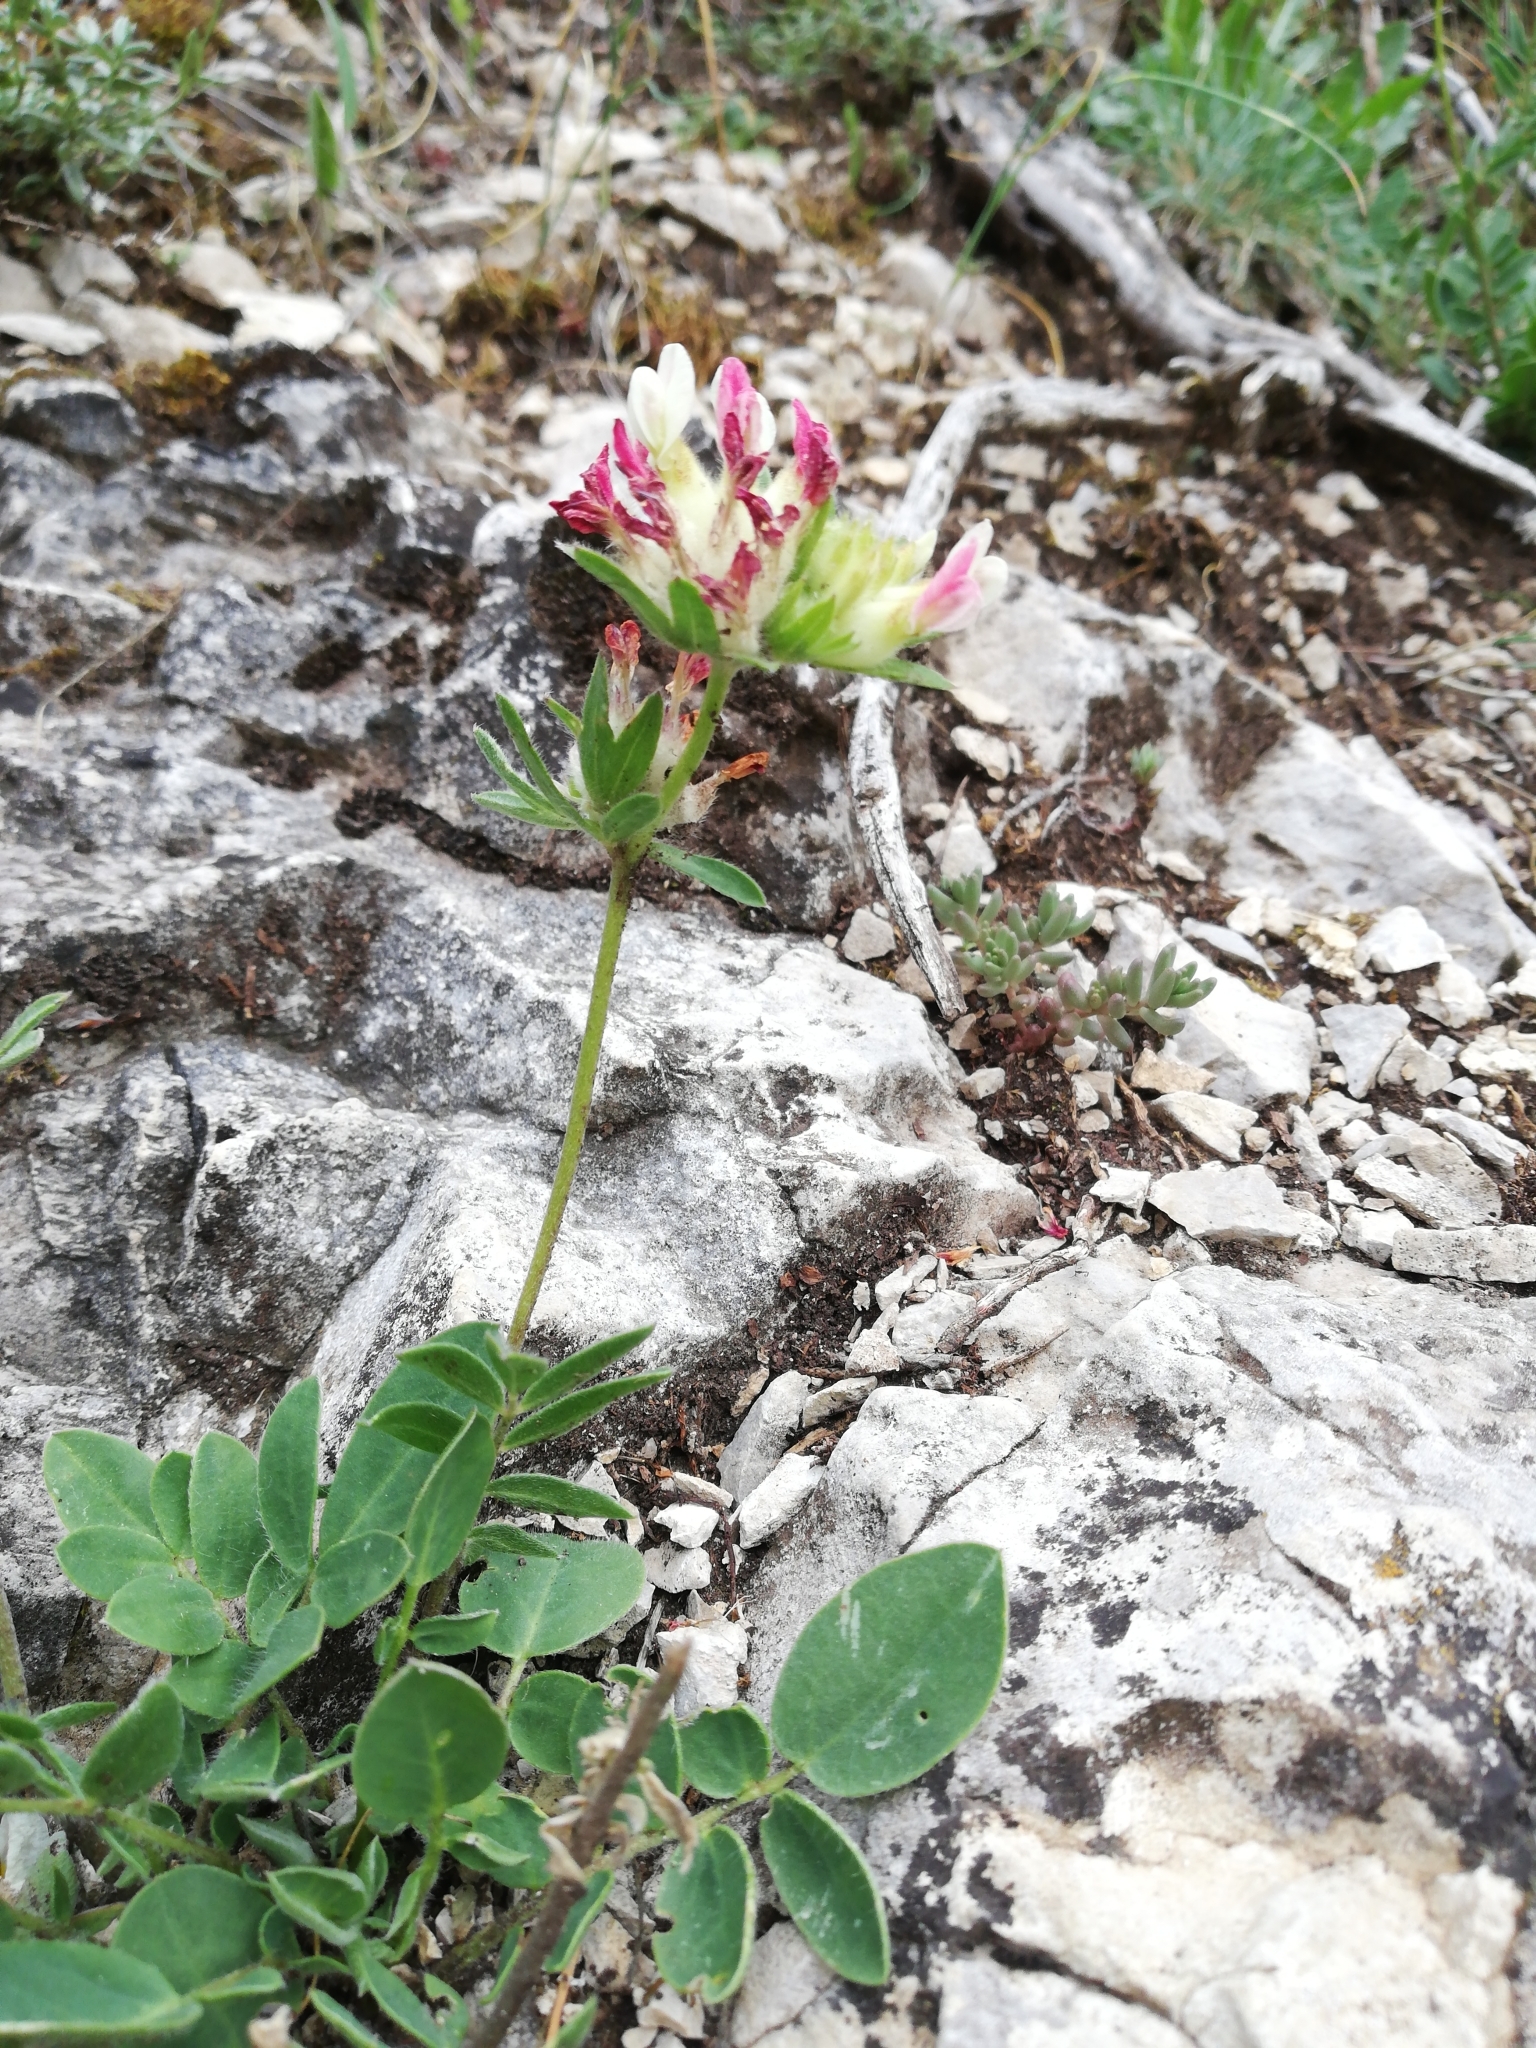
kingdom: Plantae
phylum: Tracheophyta
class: Magnoliopsida
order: Fabales
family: Fabaceae
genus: Anthyllis
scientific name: Anthyllis vulneraria
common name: Kidney vetch
